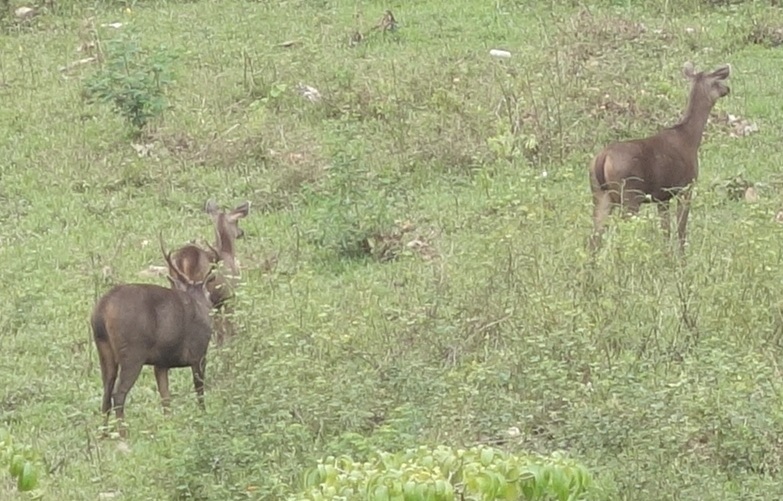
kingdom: Animalia
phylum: Chordata
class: Mammalia
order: Artiodactyla
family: Cervidae
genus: Rusa
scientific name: Rusa unicolor
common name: Sambar
